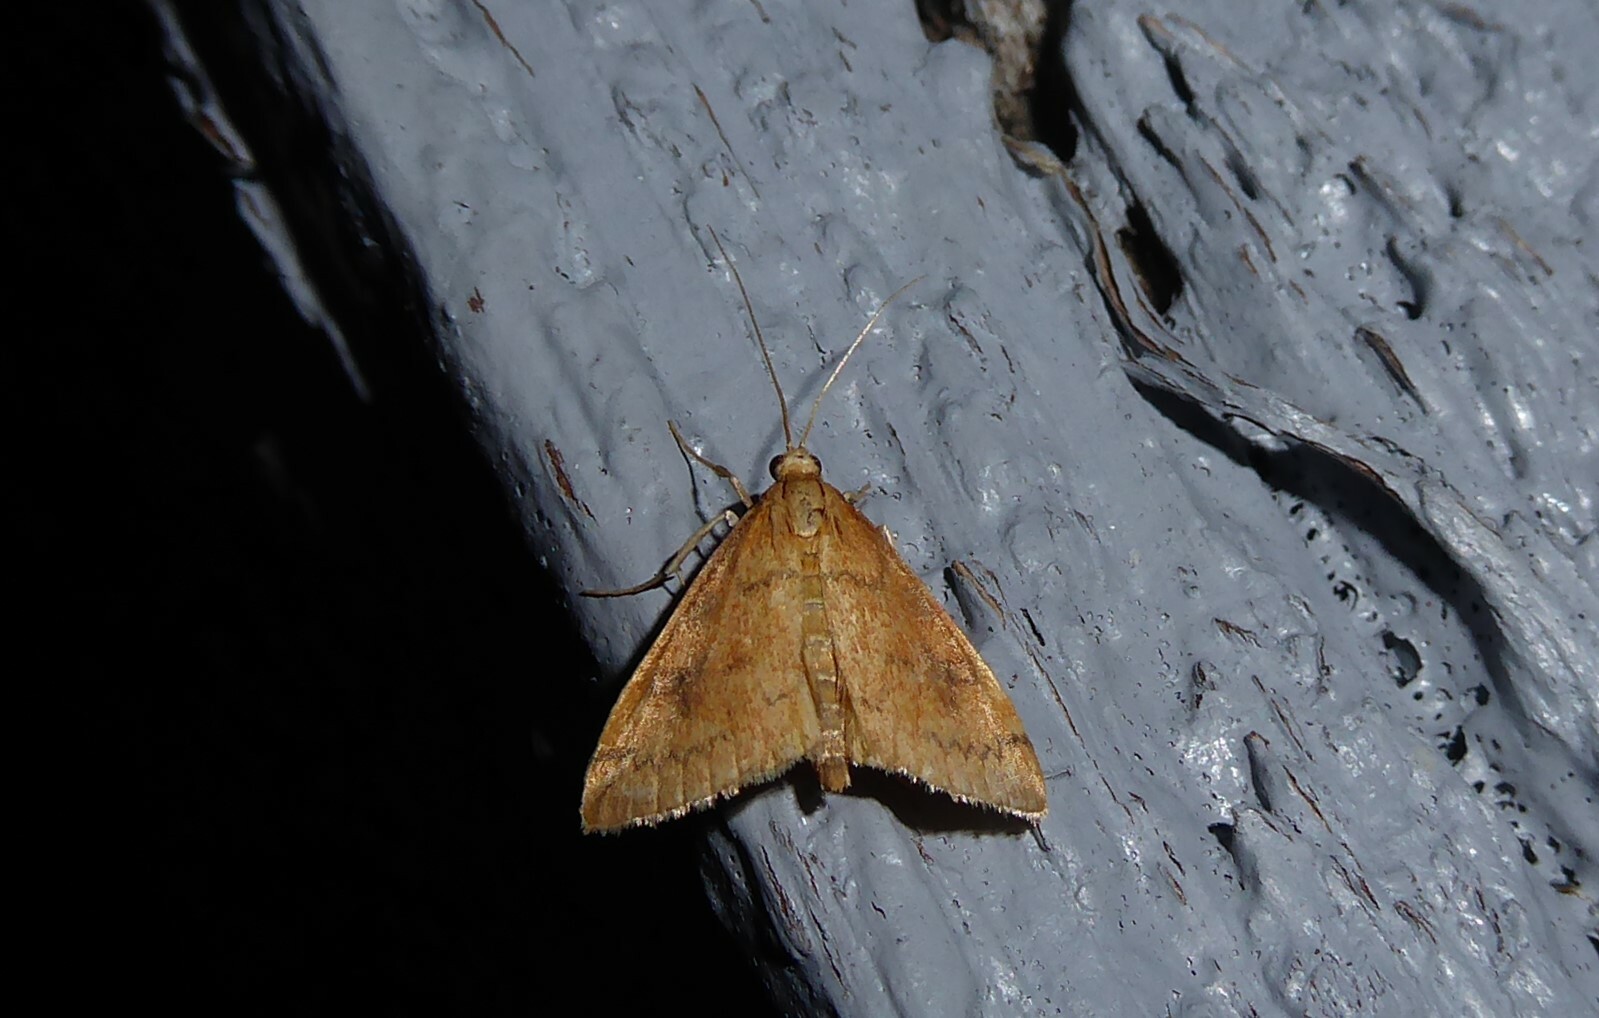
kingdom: Animalia
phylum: Arthropoda
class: Insecta
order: Lepidoptera
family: Crambidae
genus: Udea
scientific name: Udea Mnesictena flavidalis
